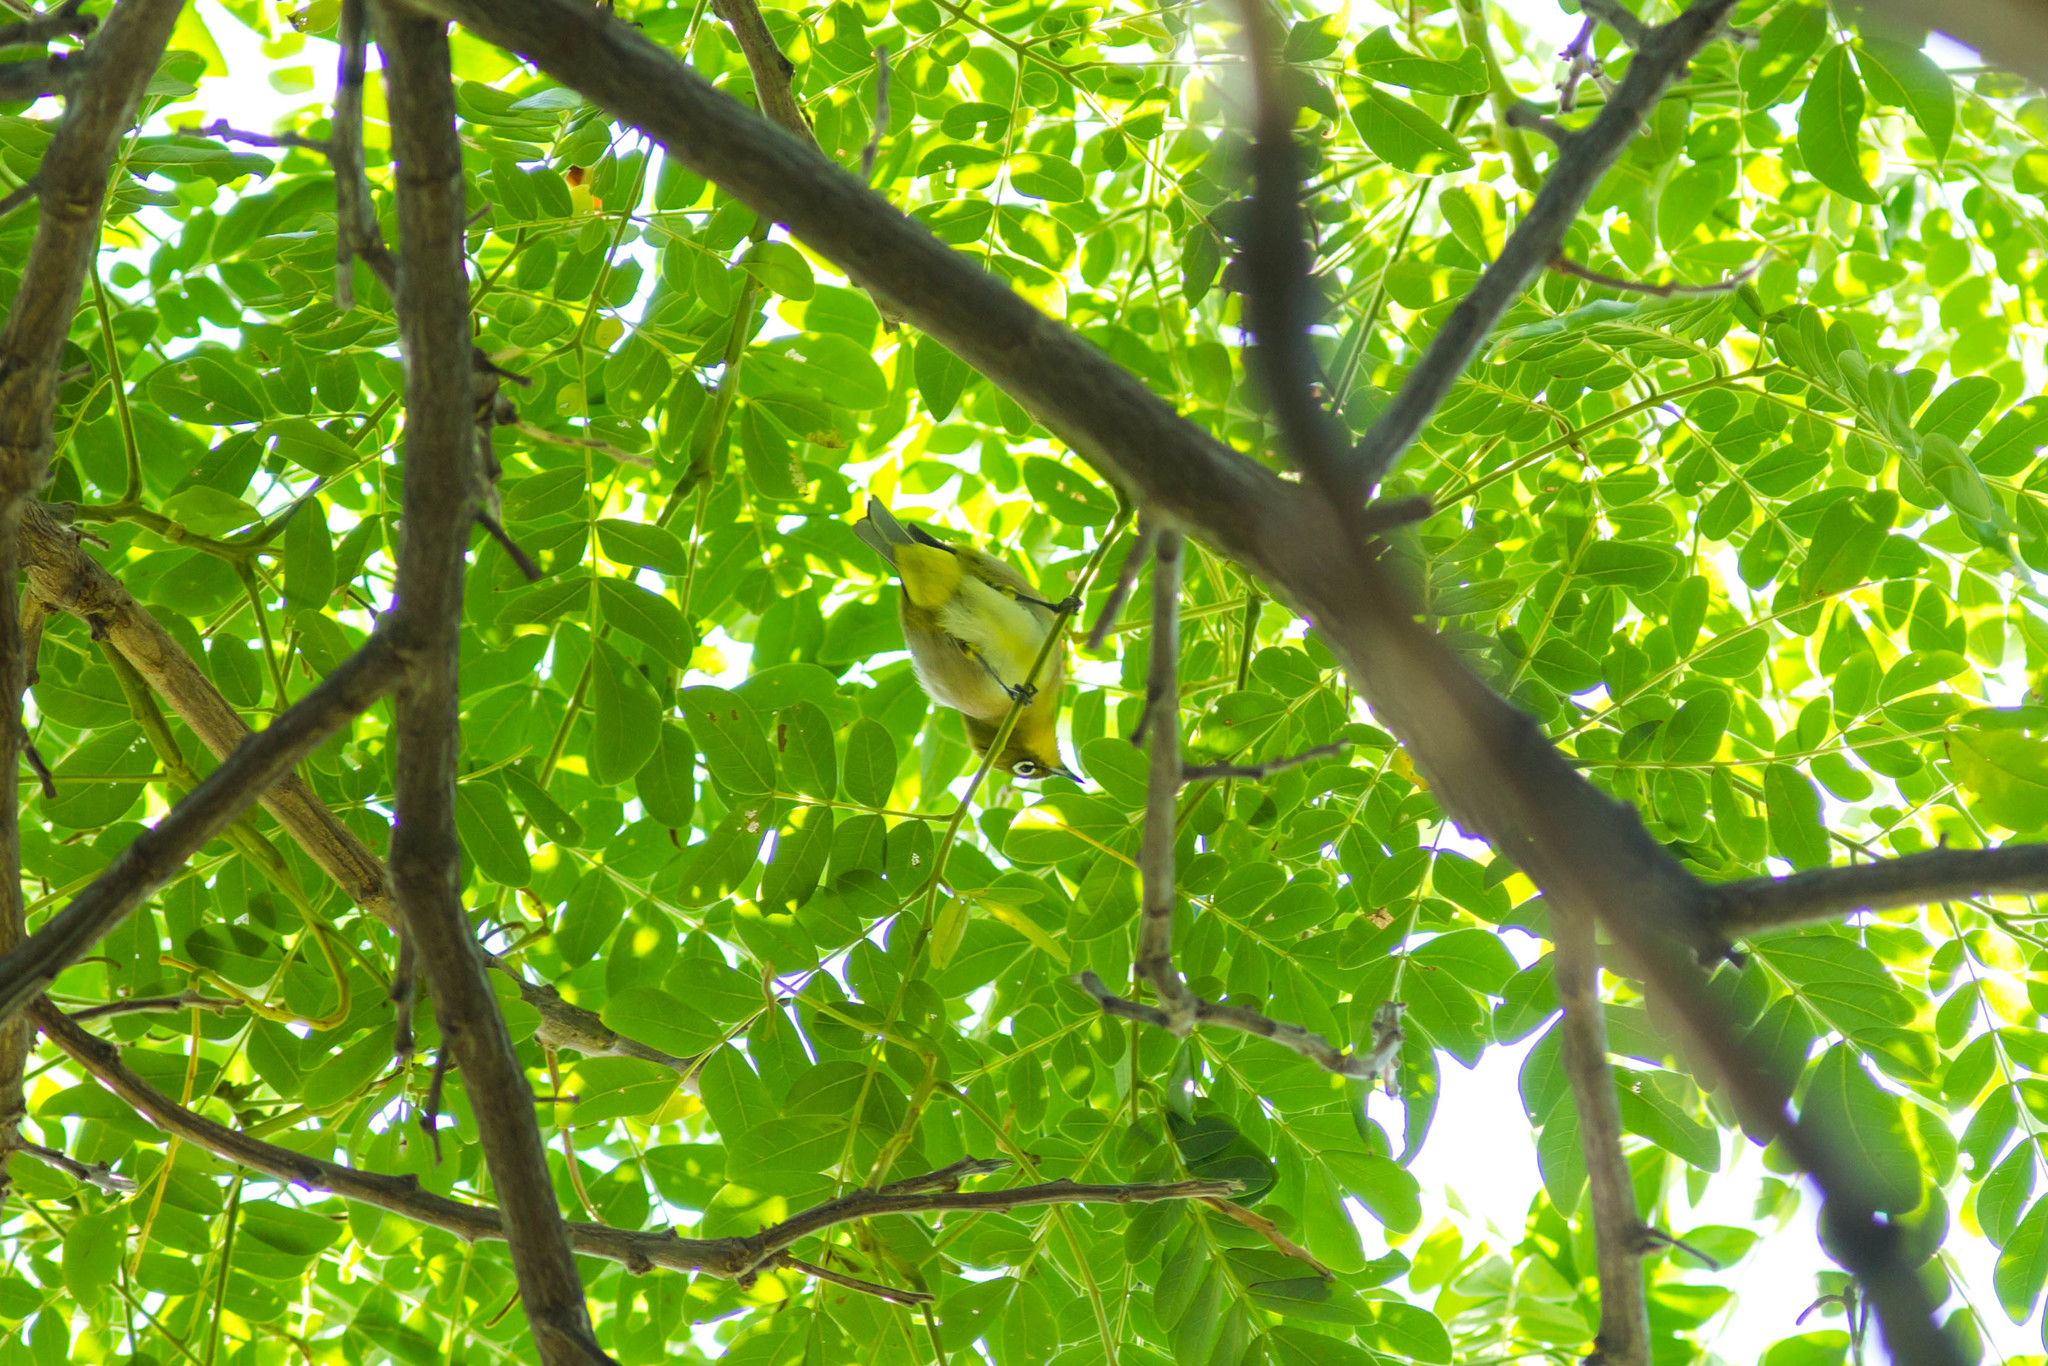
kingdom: Animalia
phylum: Chordata
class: Aves
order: Passeriformes
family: Zosteropidae
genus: Zosterops
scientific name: Zosterops japonicus
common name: Japanese white-eye
